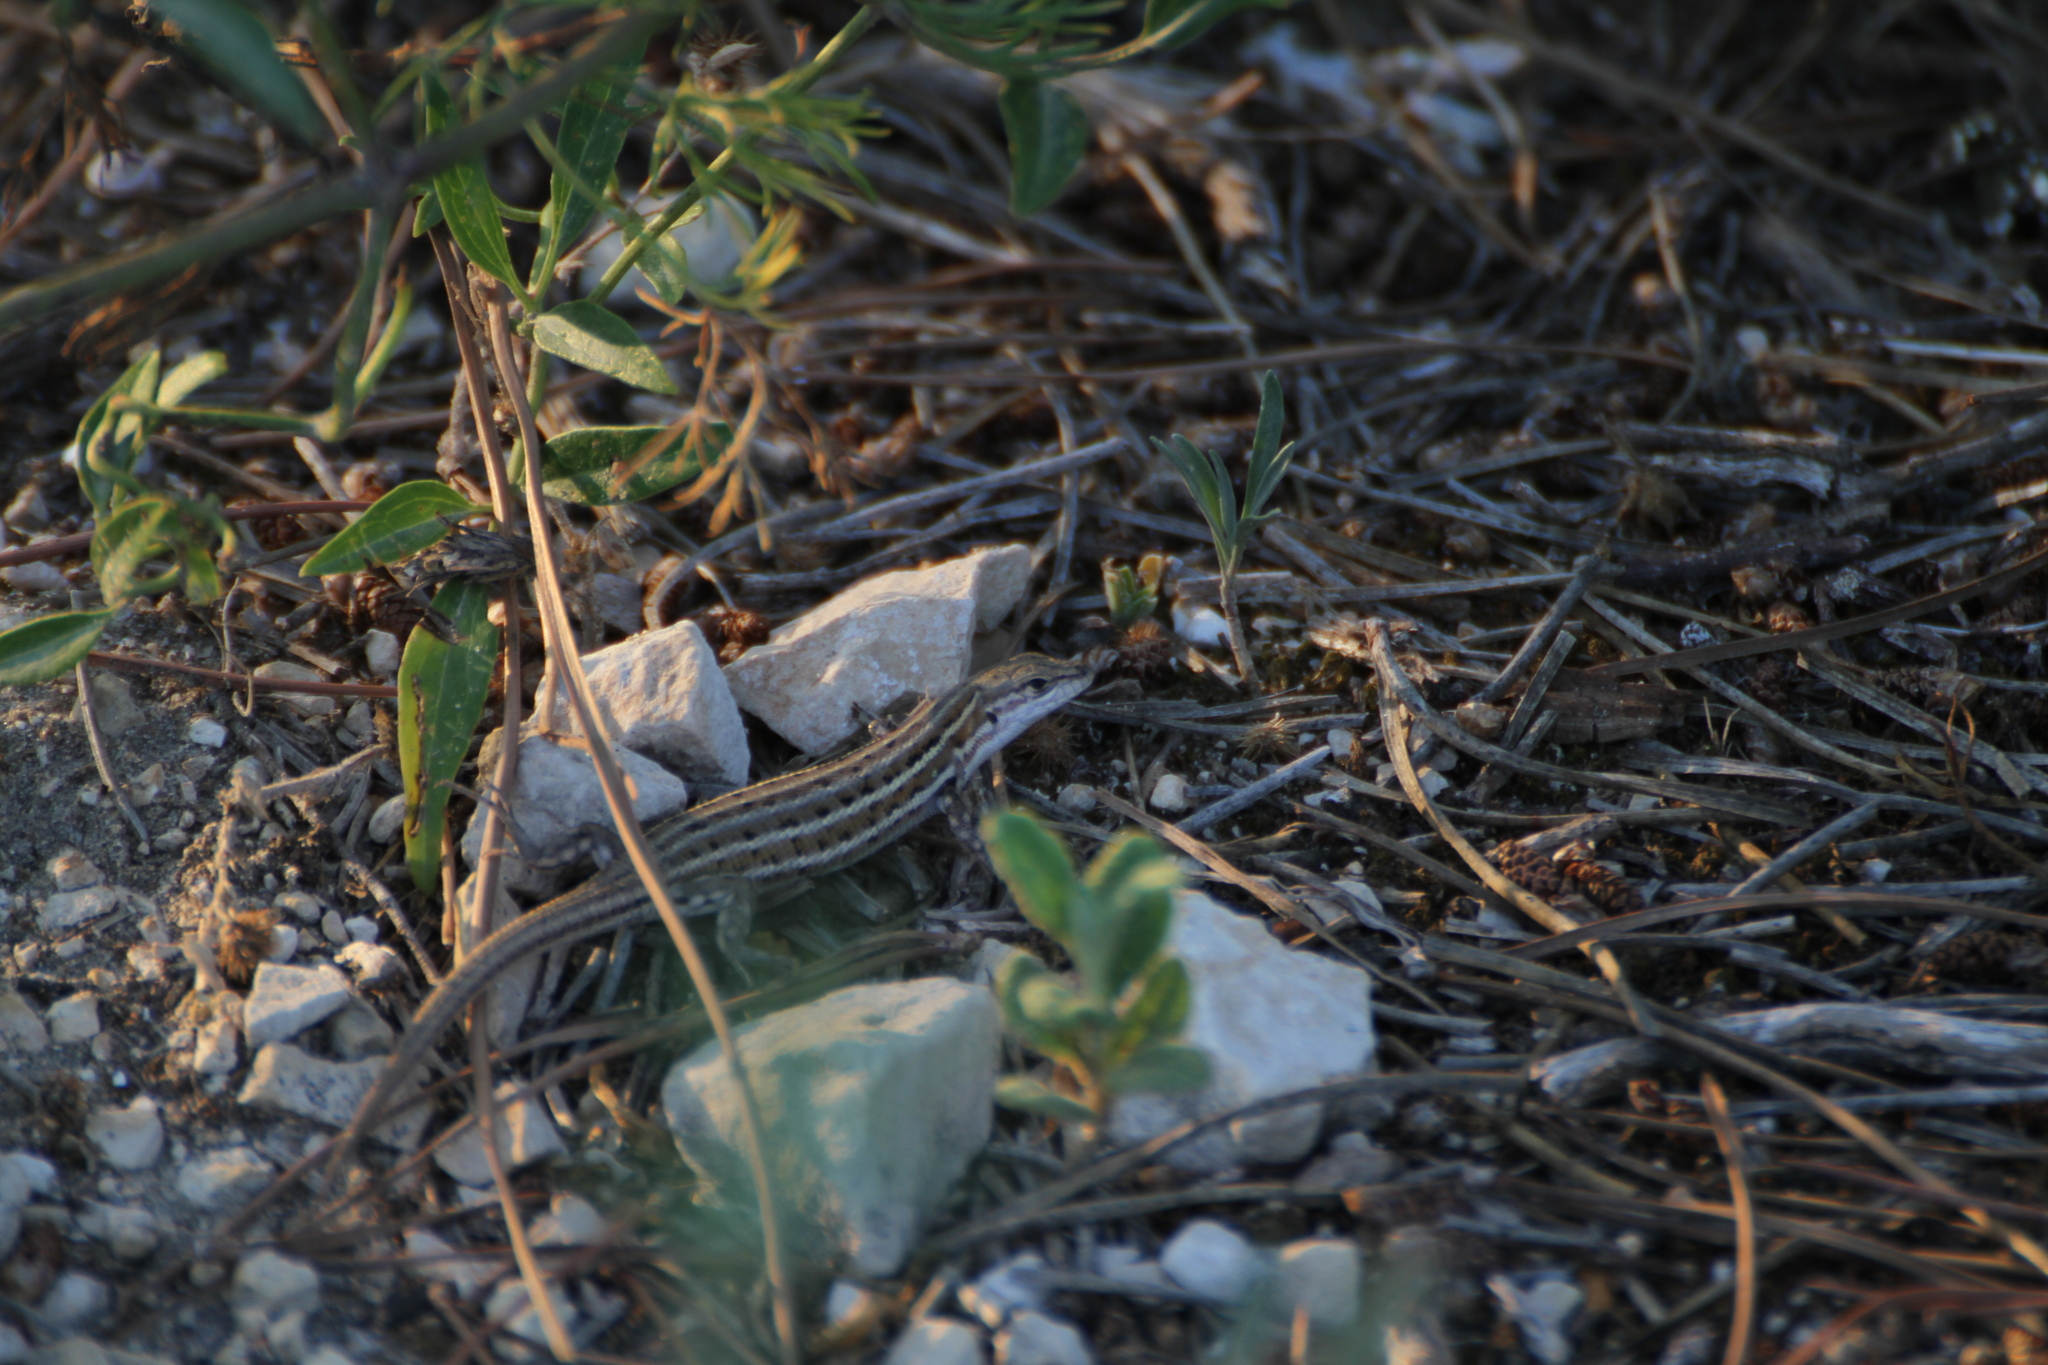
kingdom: Animalia
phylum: Chordata
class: Squamata
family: Lacertidae
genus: Psammodromus
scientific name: Psammodromus edwarsianus
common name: East iberian psammodromus
